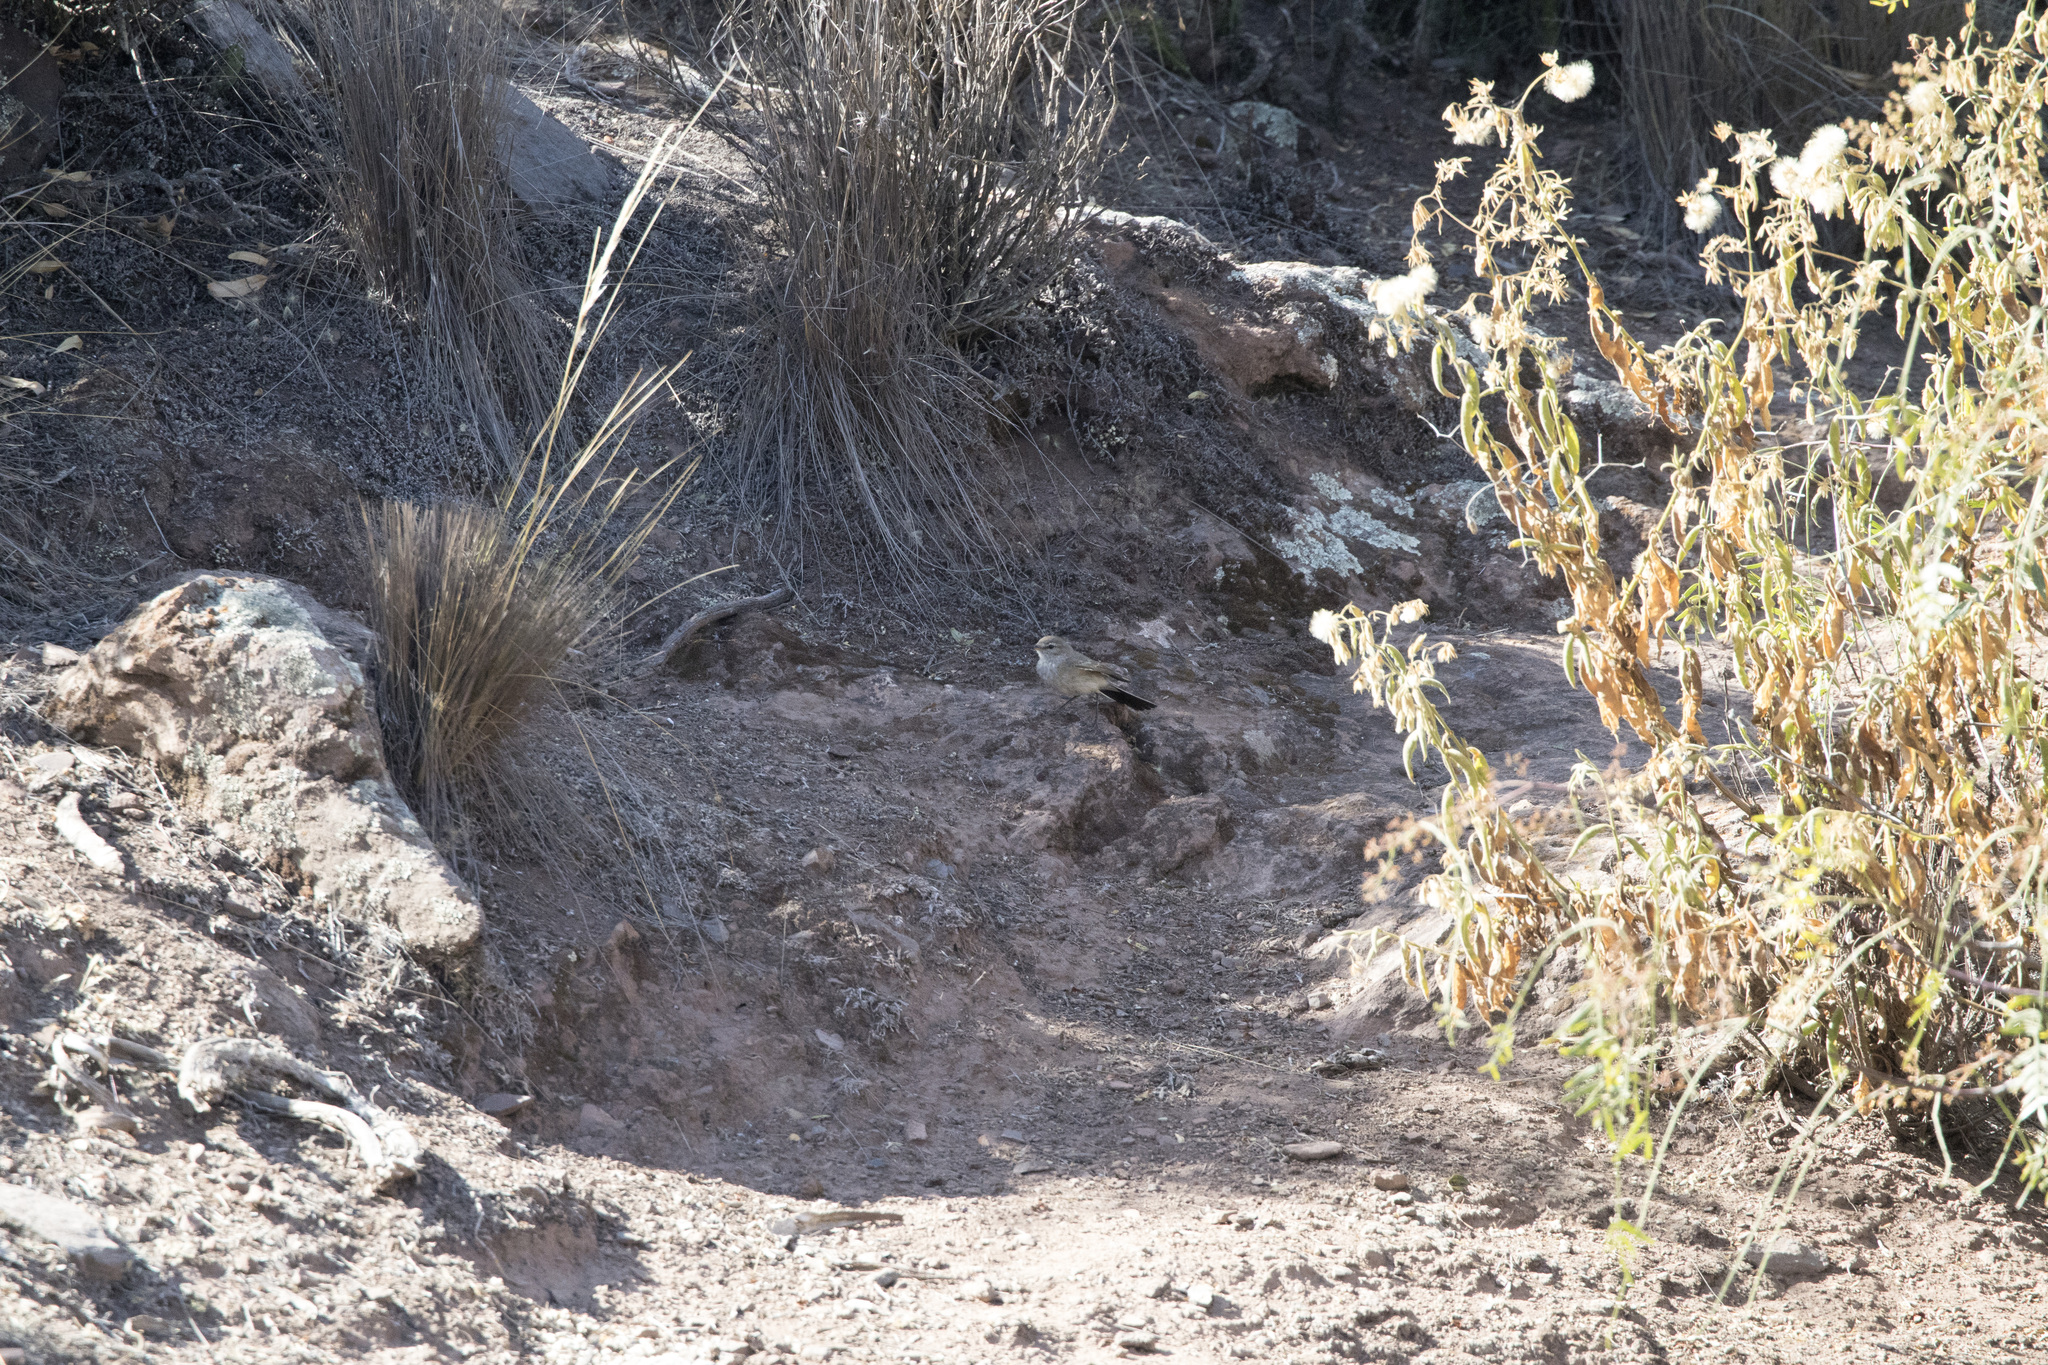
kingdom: Animalia
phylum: Chordata
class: Aves
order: Passeriformes
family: Tyrannidae
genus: Muscisaxicola
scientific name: Muscisaxicola maculirostris
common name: Spot-billed ground tyrant
